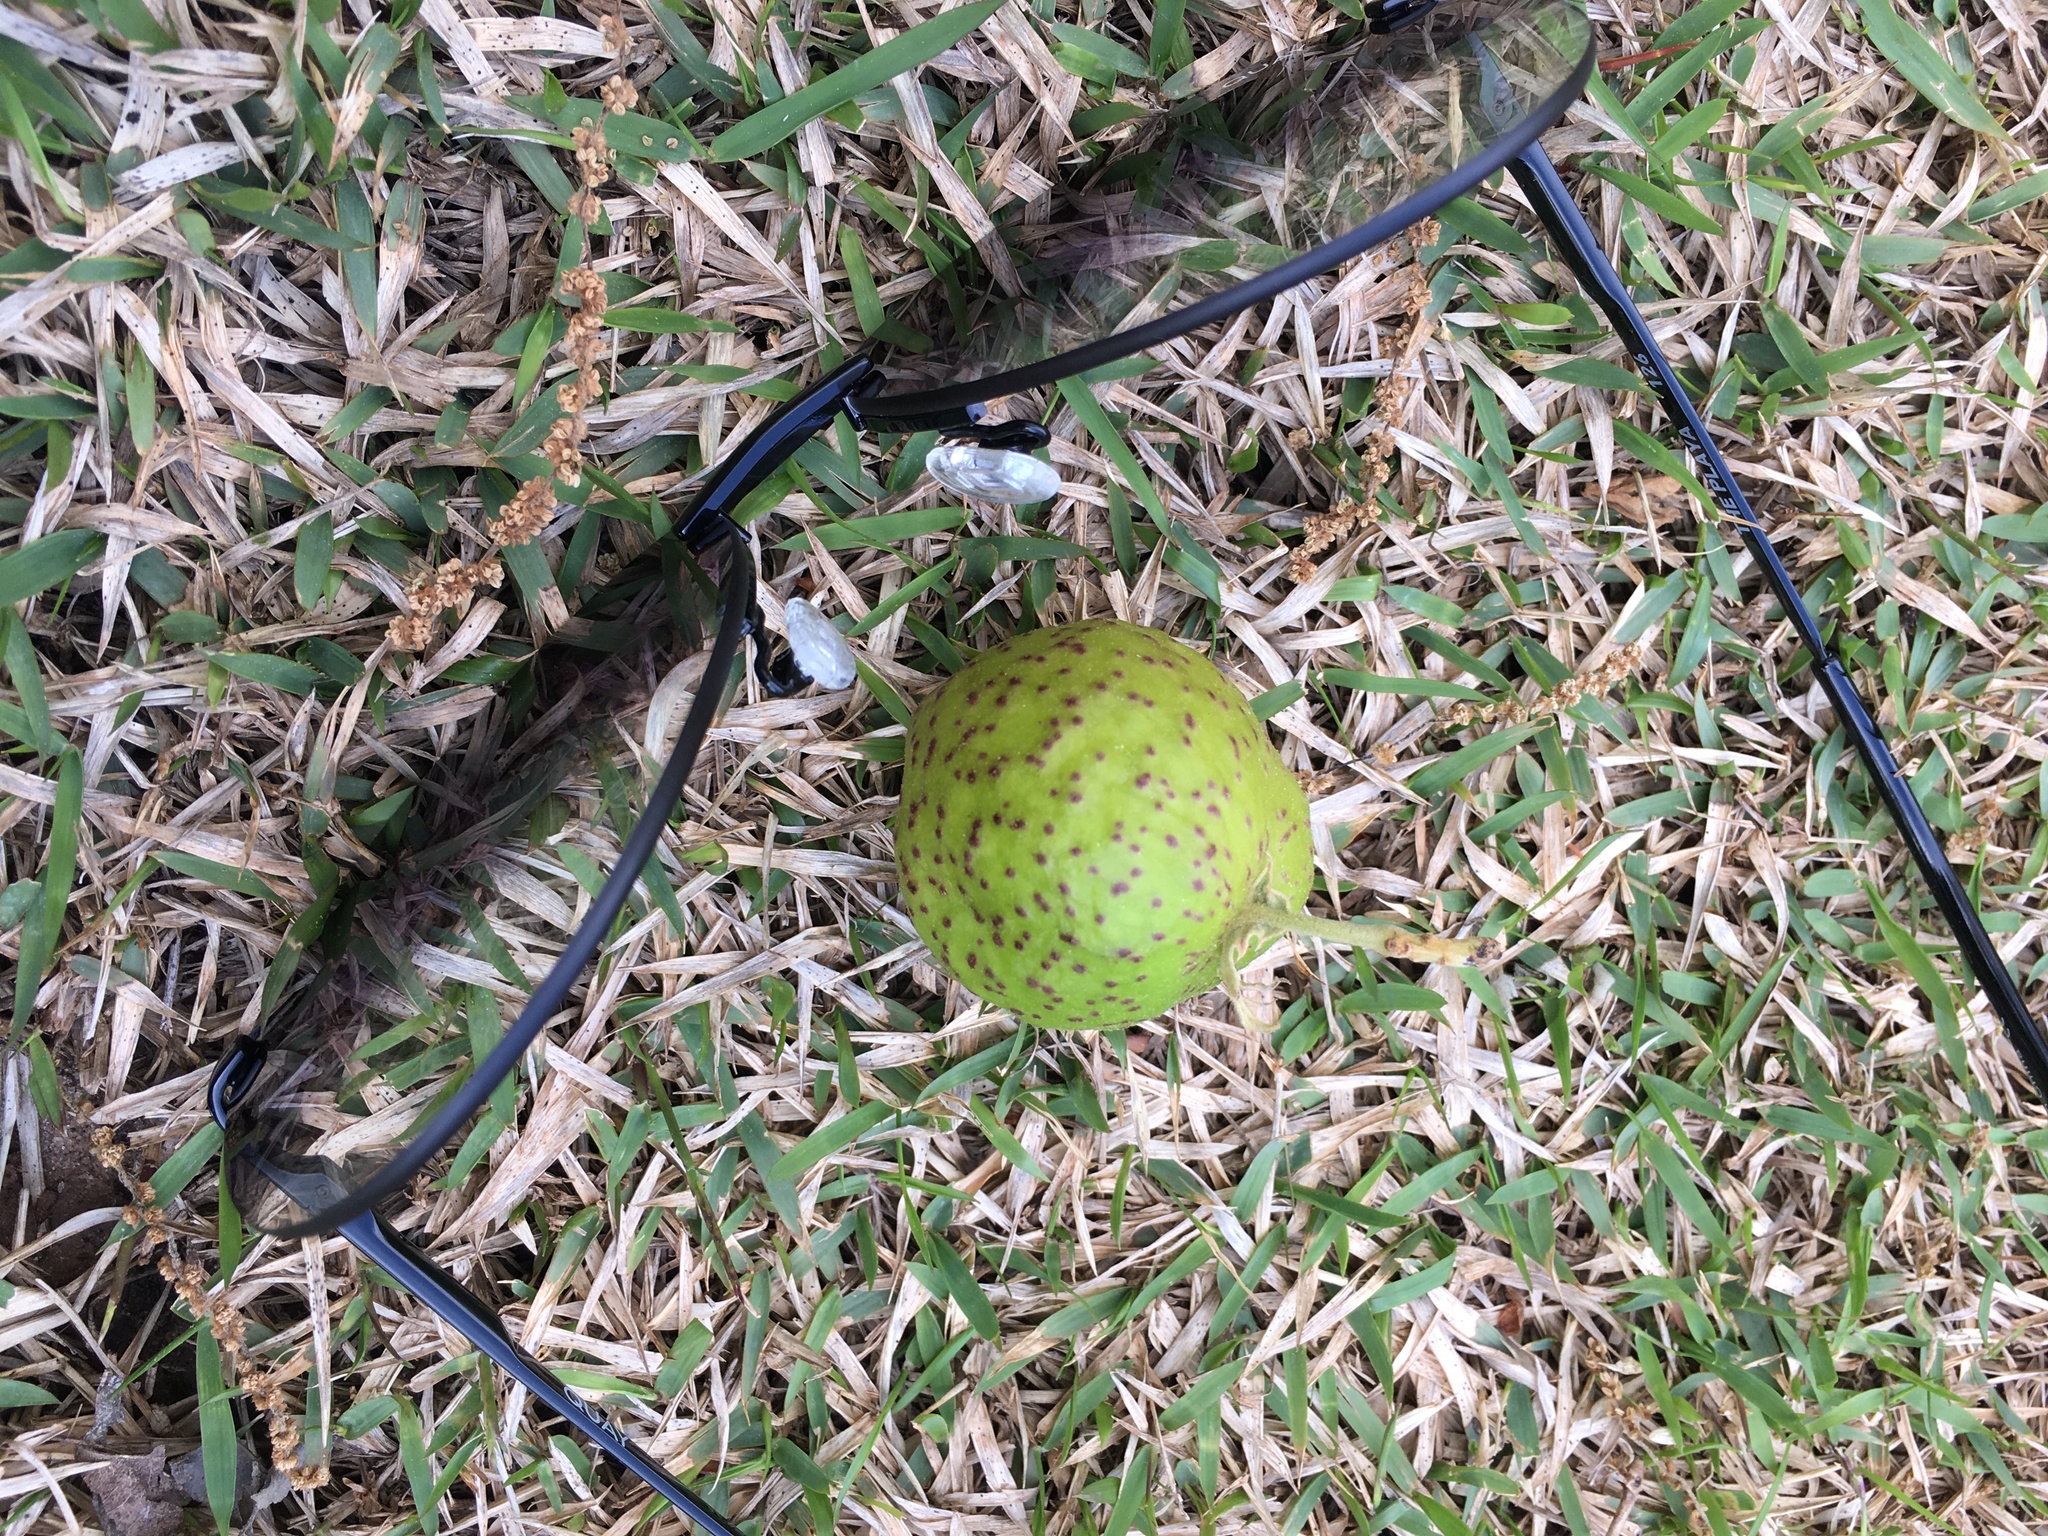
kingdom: Animalia
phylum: Arthropoda
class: Insecta
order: Hymenoptera
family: Cynipidae
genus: Amphibolips
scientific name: Amphibolips
